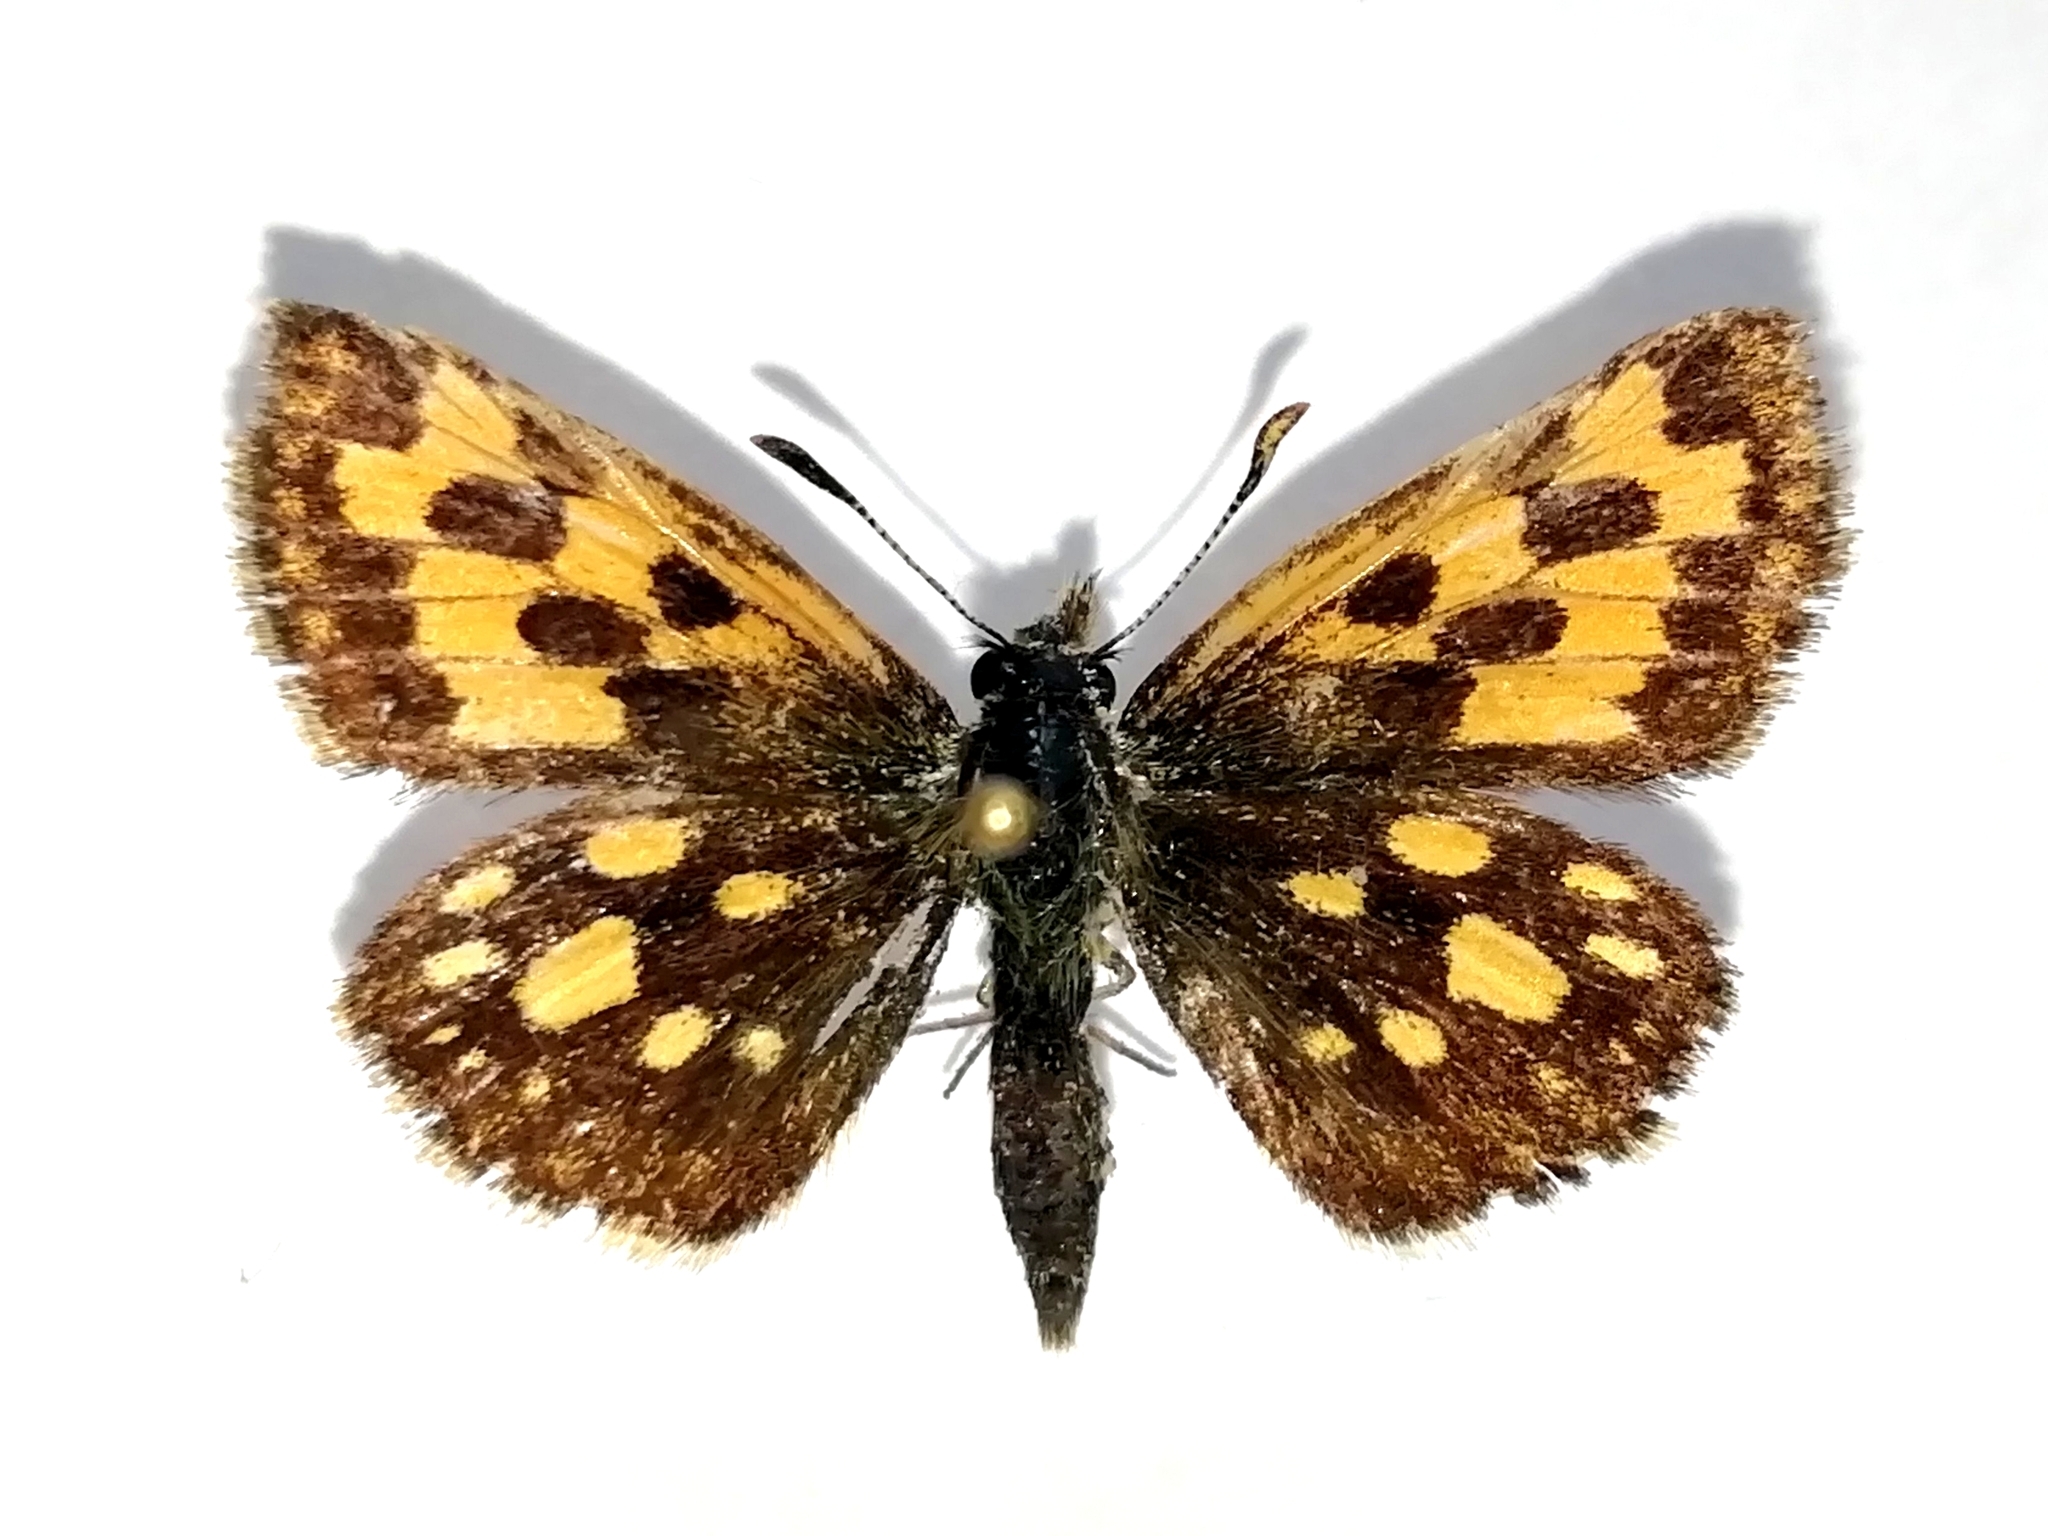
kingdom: Animalia
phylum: Arthropoda
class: Insecta
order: Lepidoptera
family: Hesperiidae
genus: Carterocephalus
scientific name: Carterocephalus silvicola
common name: Northern chequered skipper
